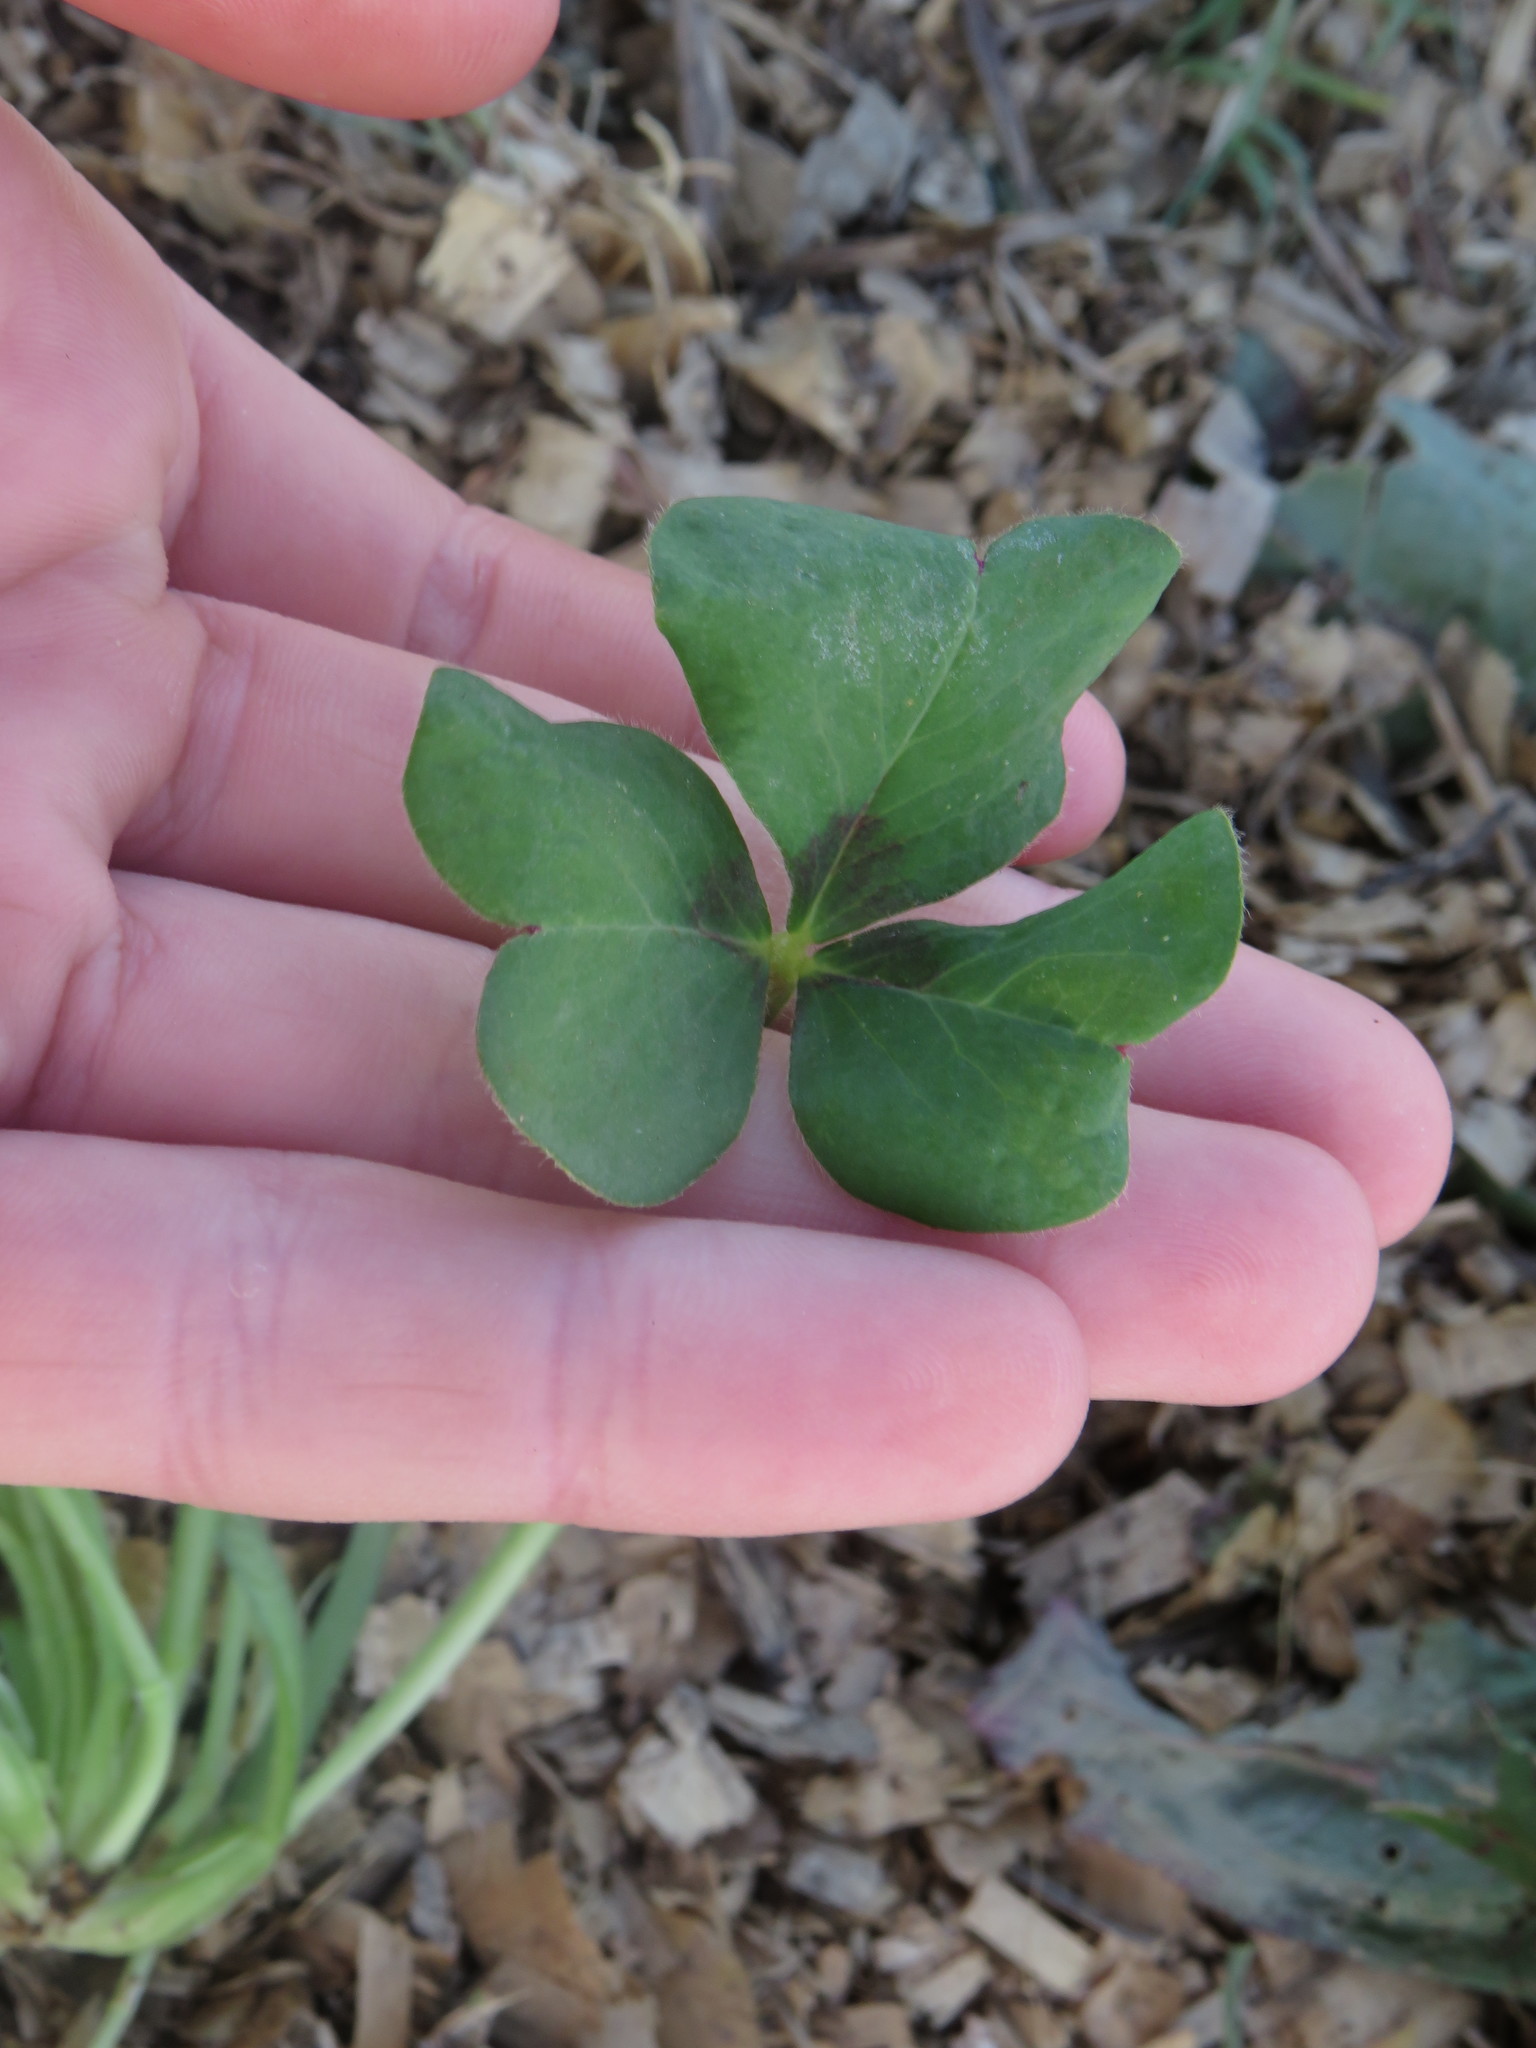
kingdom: Plantae
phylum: Tracheophyta
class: Magnoliopsida
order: Oxalidales
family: Oxalidaceae
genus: Oxalis
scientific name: Oxalis compressa
